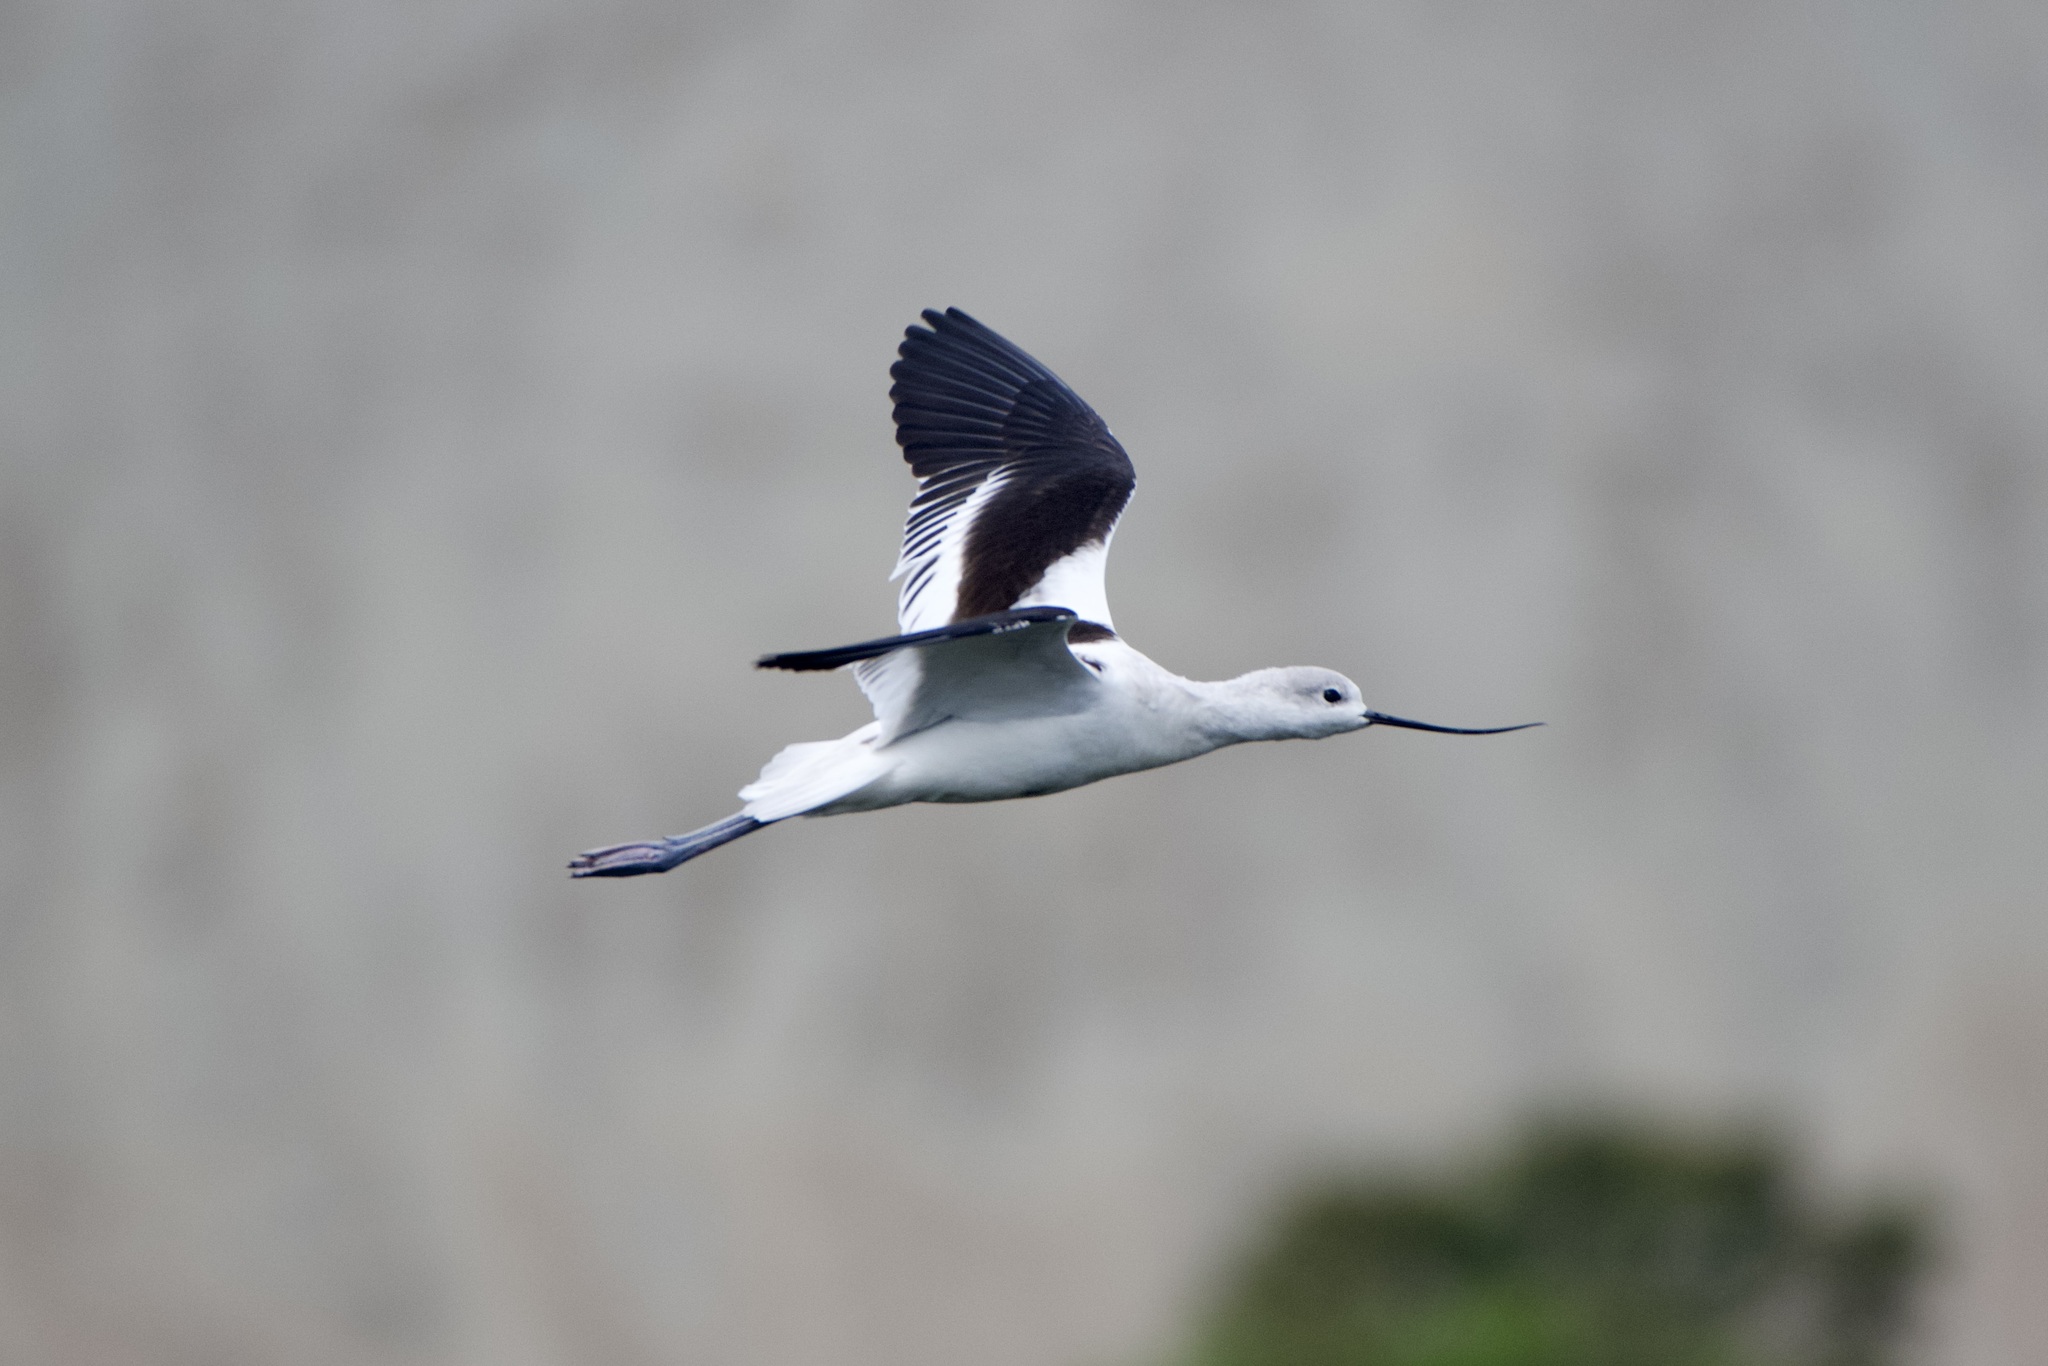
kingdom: Animalia
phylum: Chordata
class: Aves
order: Charadriiformes
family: Recurvirostridae
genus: Recurvirostra
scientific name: Recurvirostra americana
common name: American avocet
